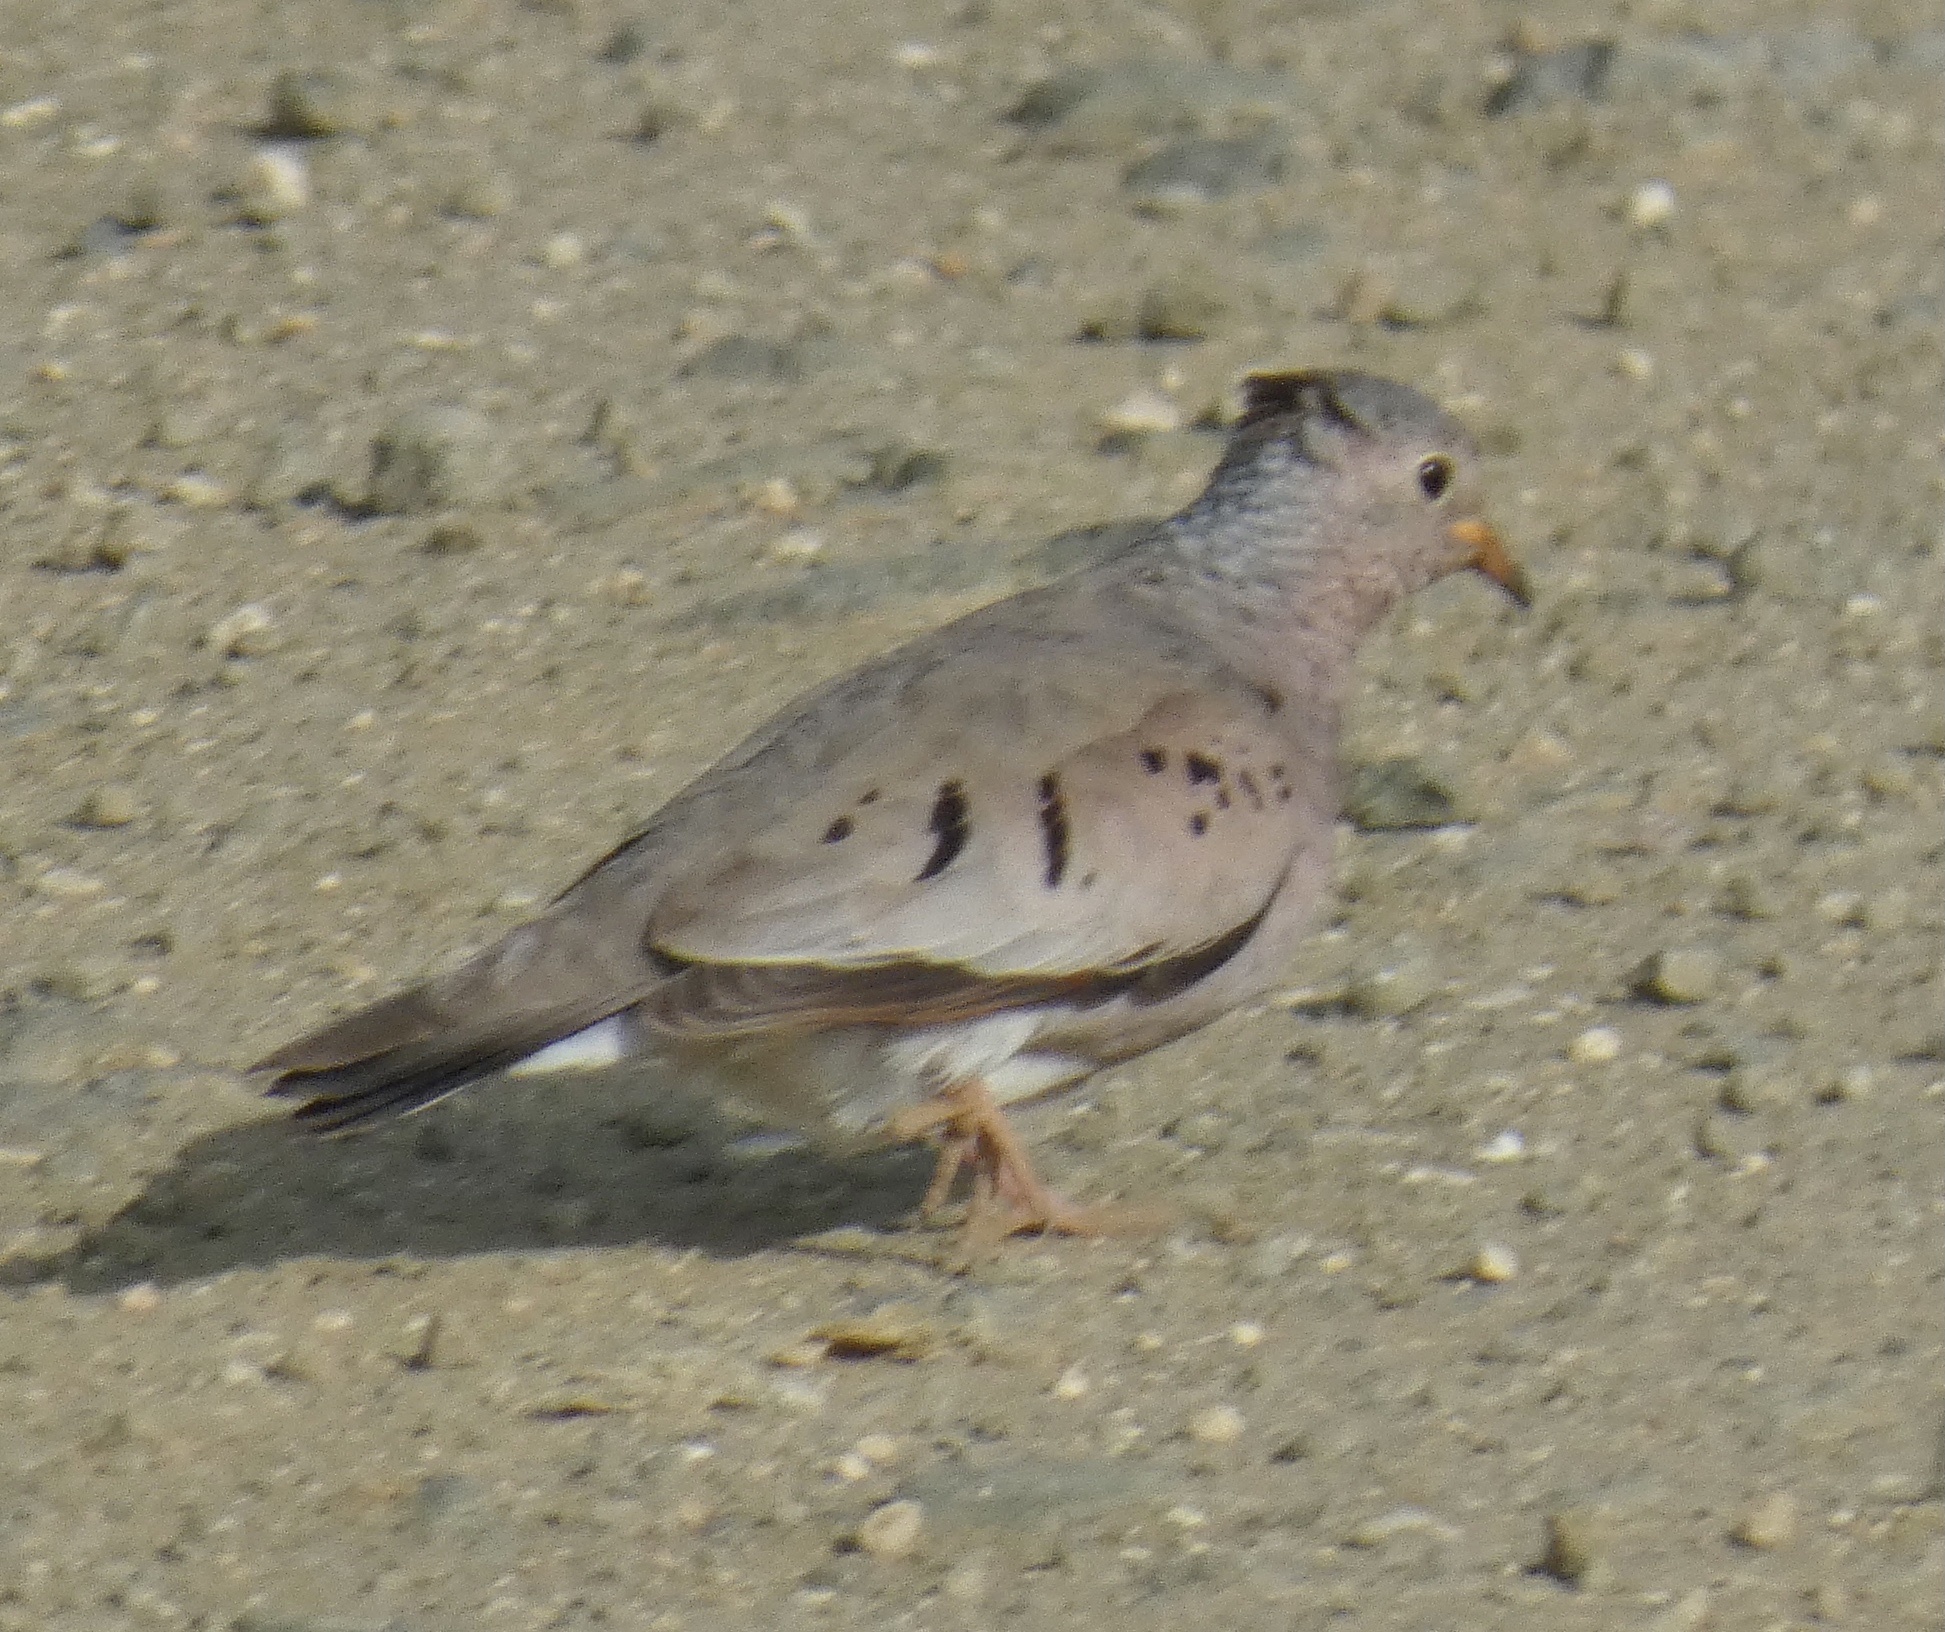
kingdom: Animalia
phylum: Chordata
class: Aves
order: Columbiformes
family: Columbidae
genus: Columbina
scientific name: Columbina passerina
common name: Common ground-dove
